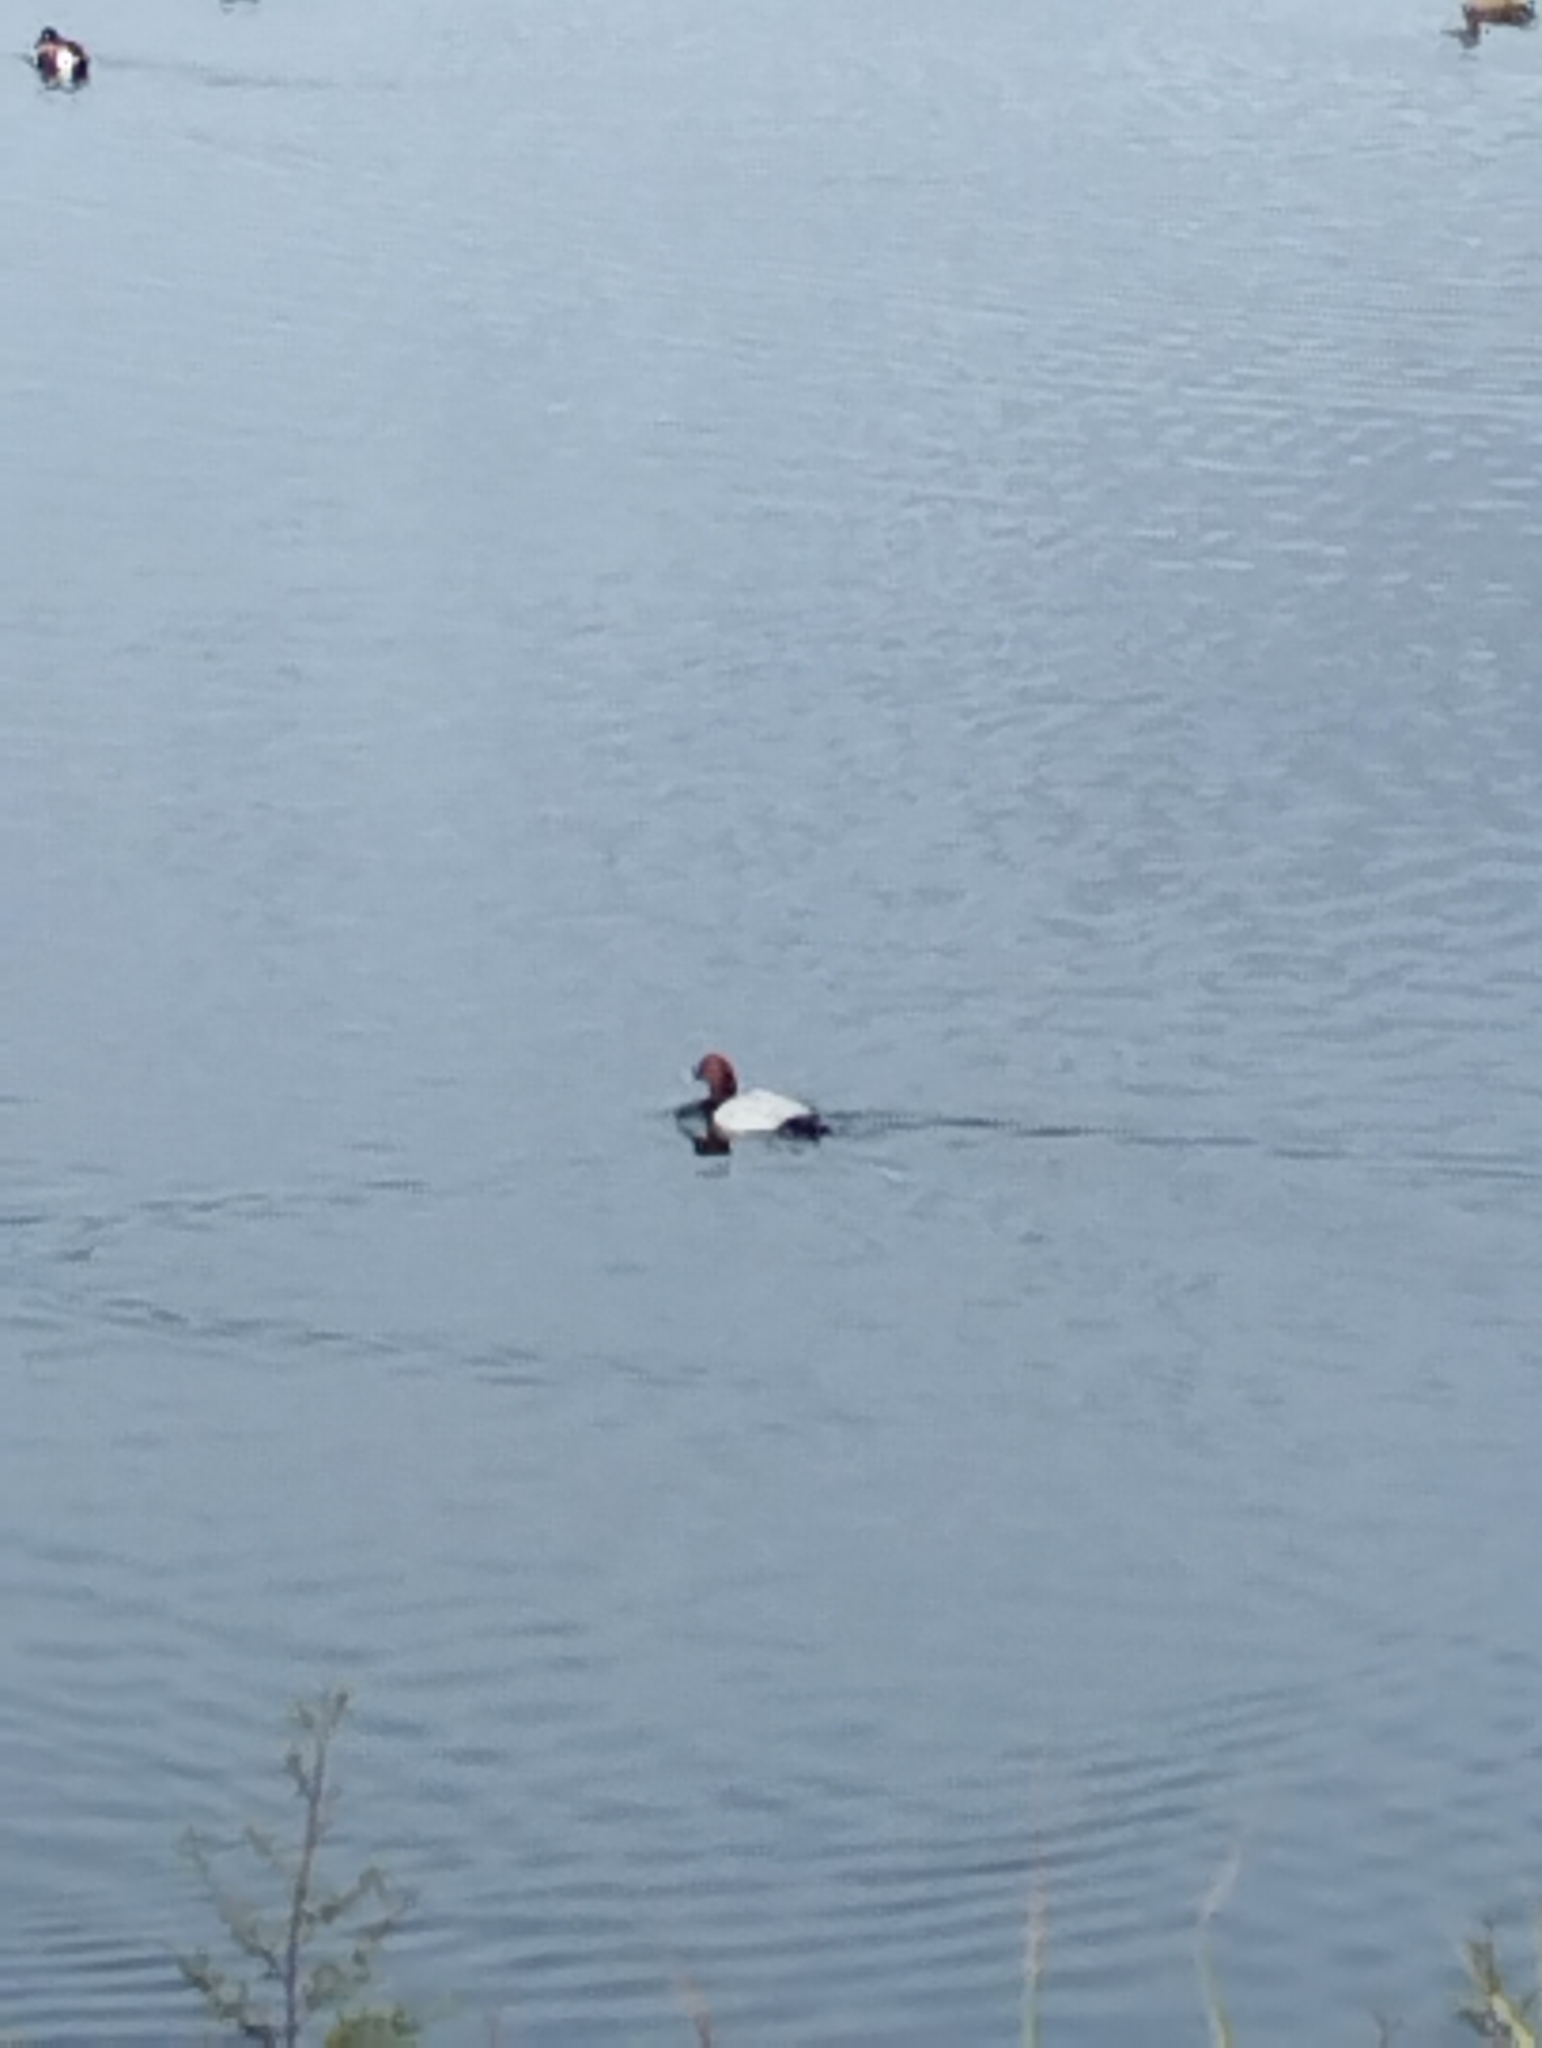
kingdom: Animalia
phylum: Chordata
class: Aves
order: Anseriformes
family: Anatidae
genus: Aythya
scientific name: Aythya ferina
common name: Common pochard
